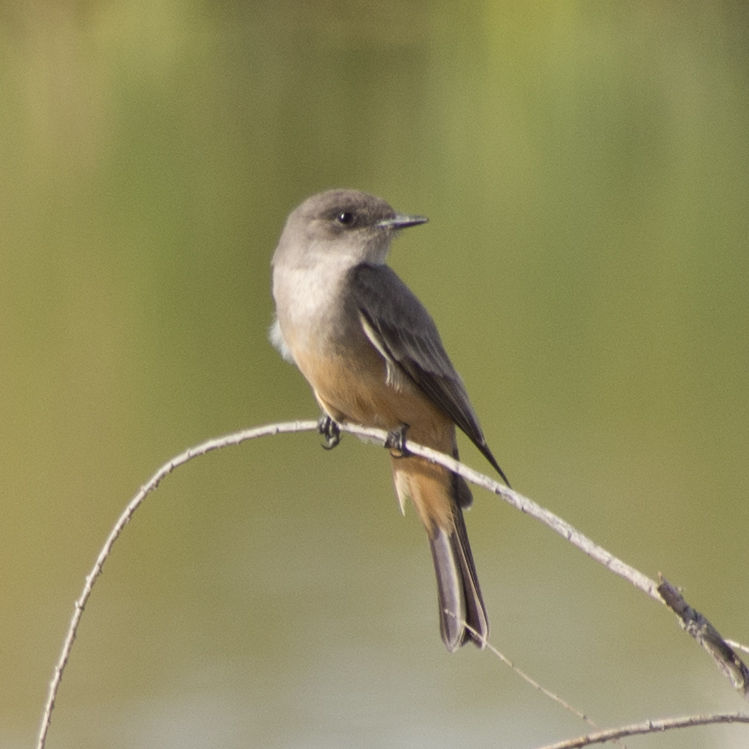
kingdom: Animalia
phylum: Chordata
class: Aves
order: Passeriformes
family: Tyrannidae
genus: Sayornis
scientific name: Sayornis saya
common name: Say's phoebe
